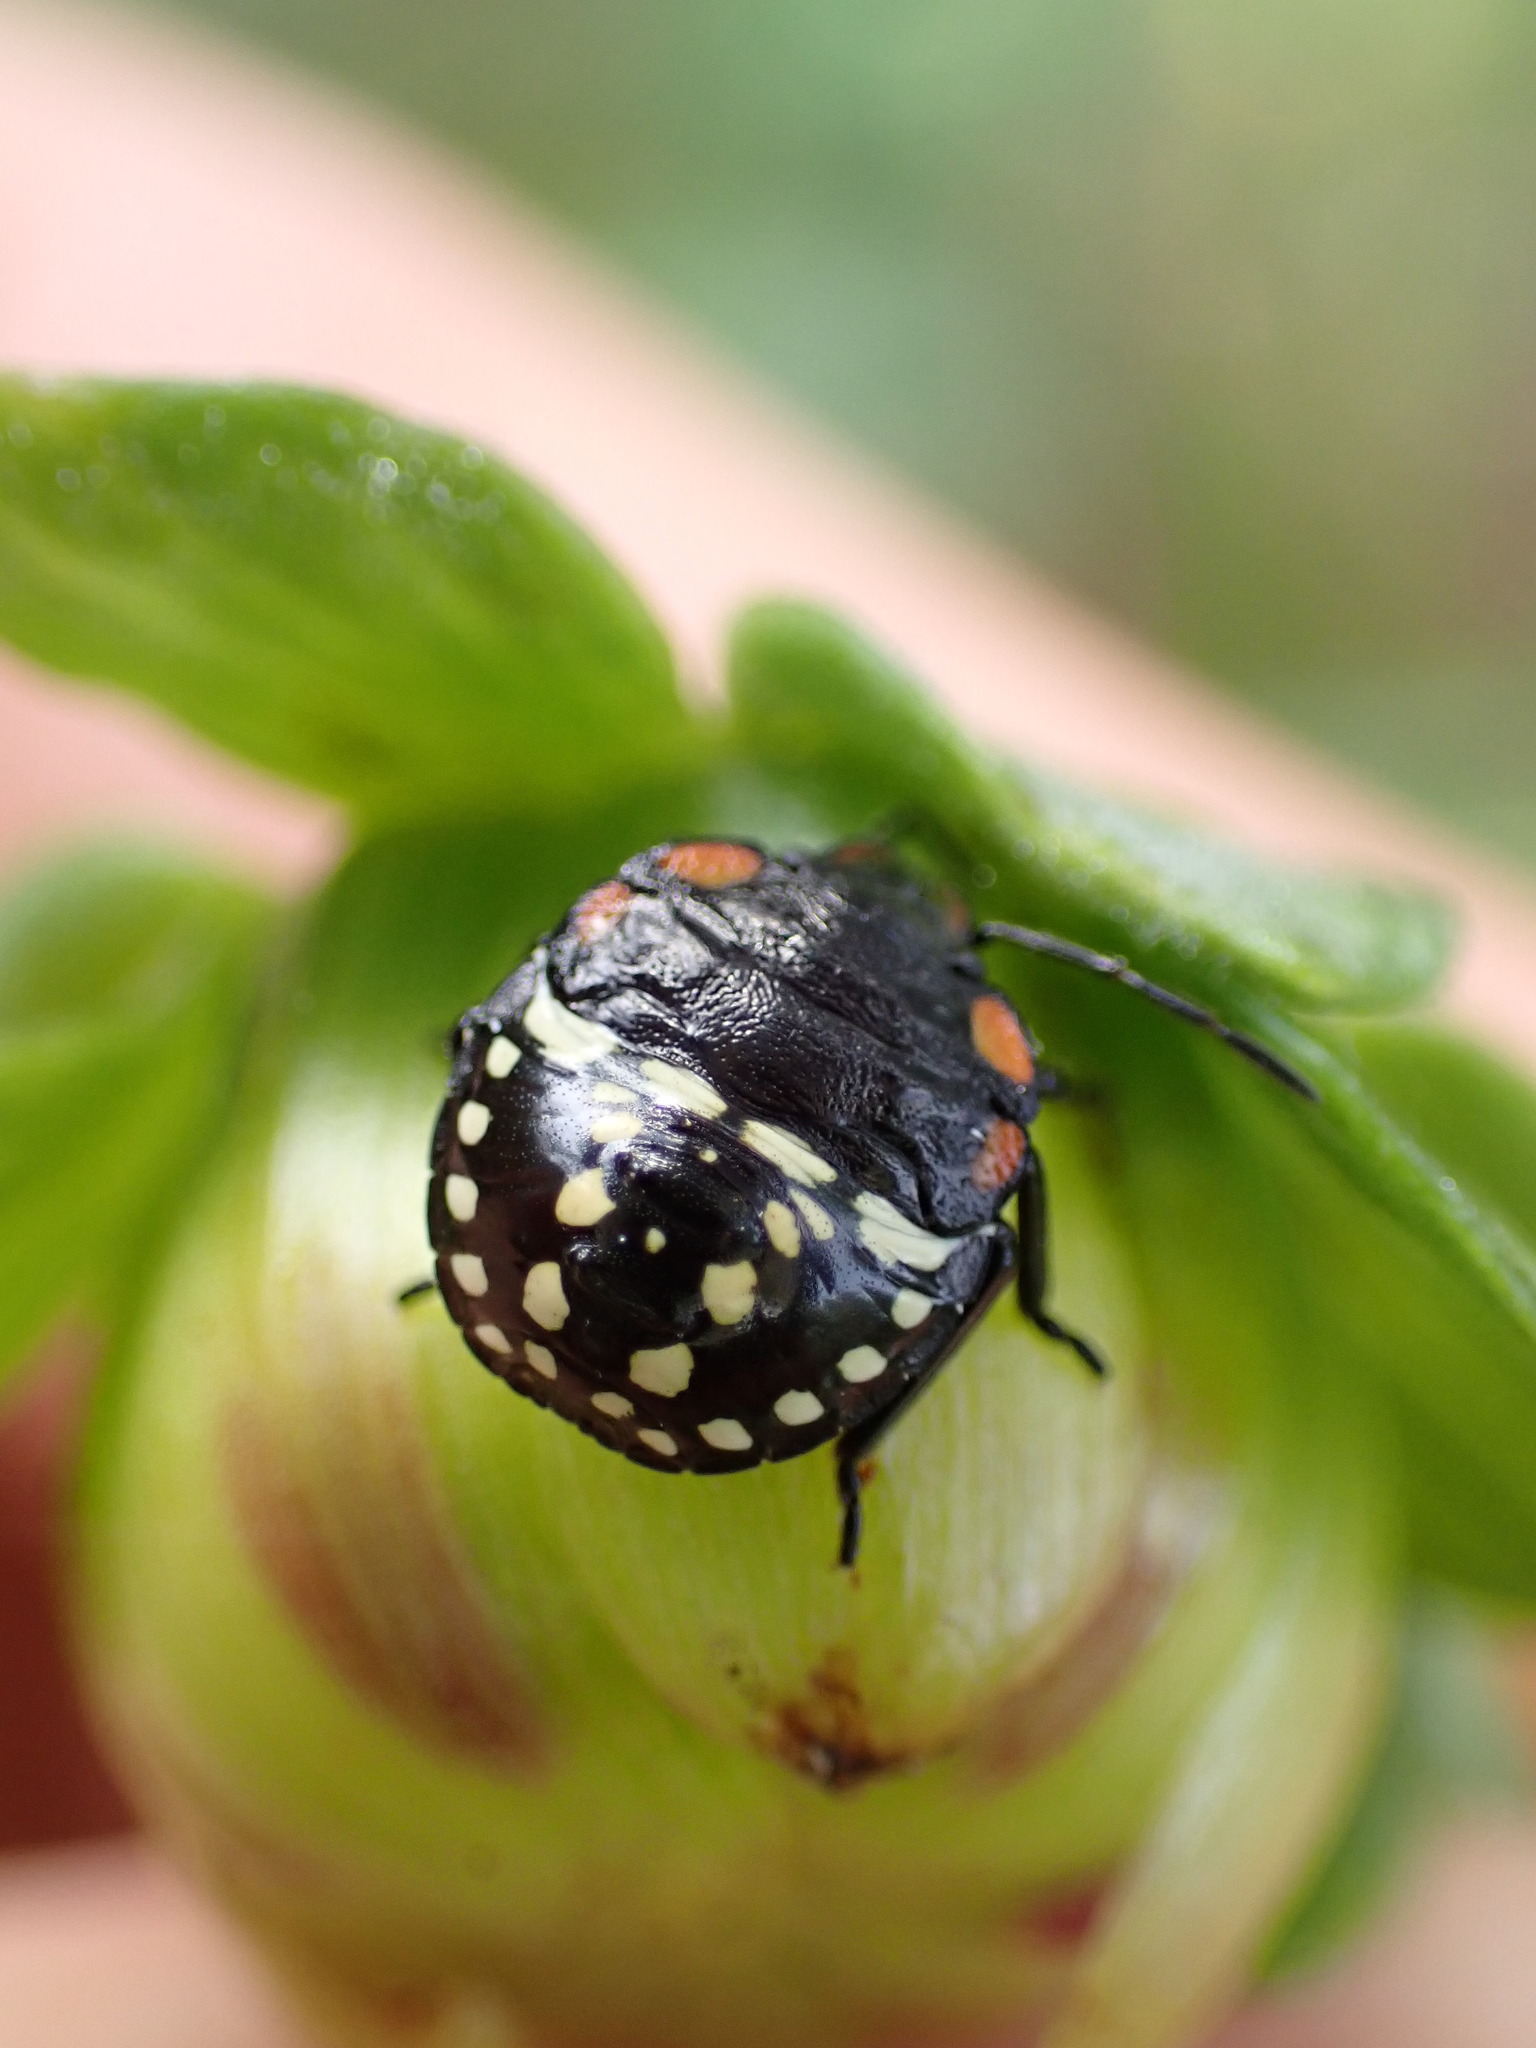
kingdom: Animalia
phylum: Arthropoda
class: Insecta
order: Hemiptera
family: Pentatomidae
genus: Nezara
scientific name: Nezara viridula
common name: Southern green stink bug
